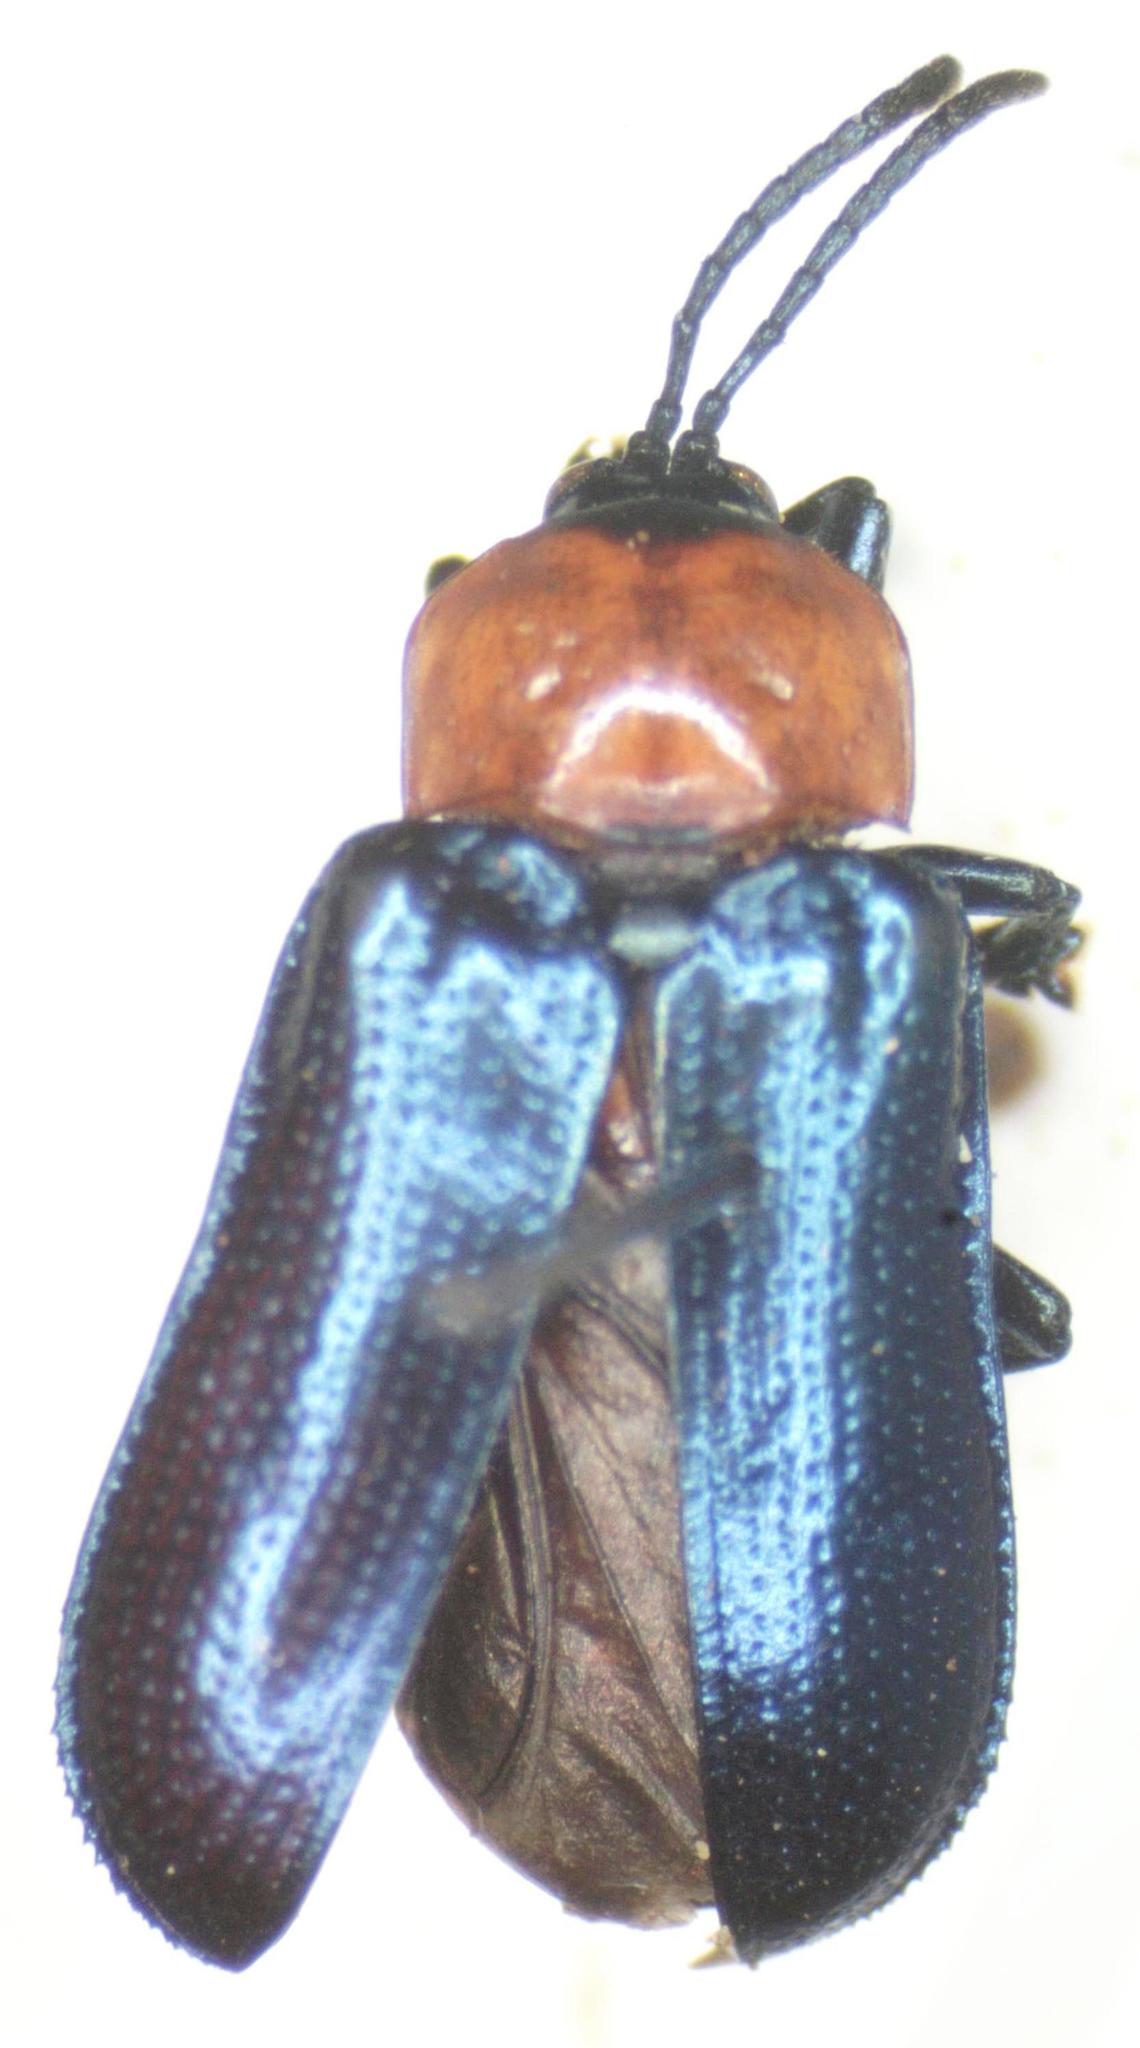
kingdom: Animalia
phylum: Arthropoda
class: Insecta
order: Coleoptera
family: Chrysomelidae
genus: Oediopalpa
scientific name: Oediopalpa guerinii
